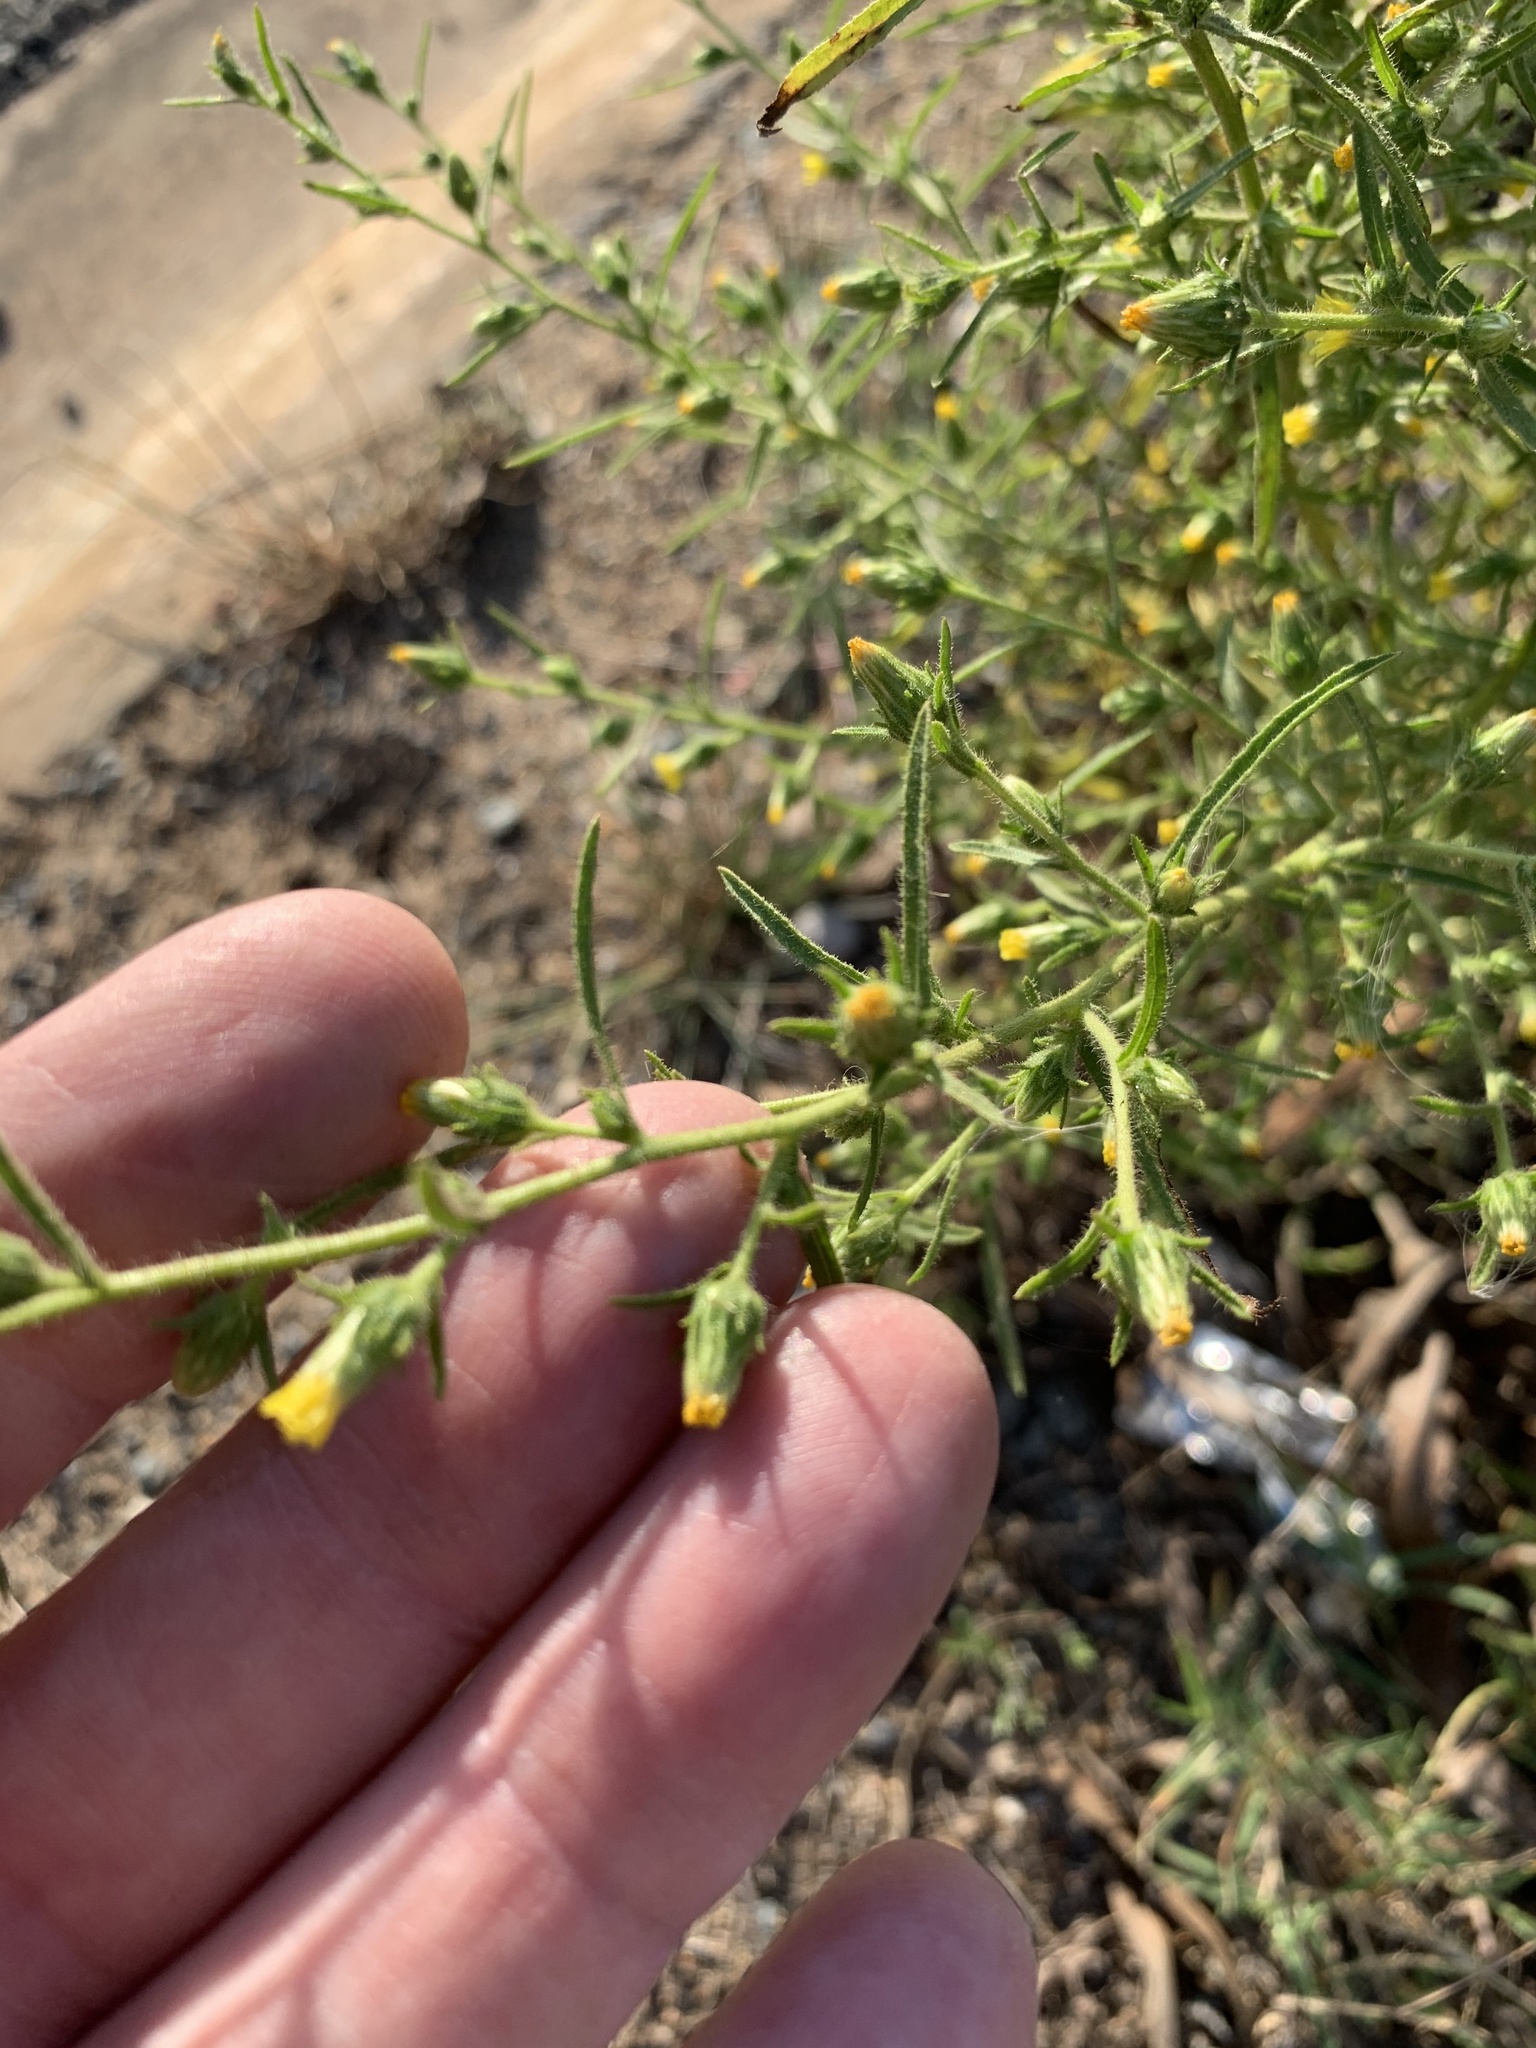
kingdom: Plantae
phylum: Tracheophyta
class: Magnoliopsida
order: Asterales
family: Asteraceae
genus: Dittrichia
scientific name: Dittrichia graveolens
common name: Stinking fleabane
